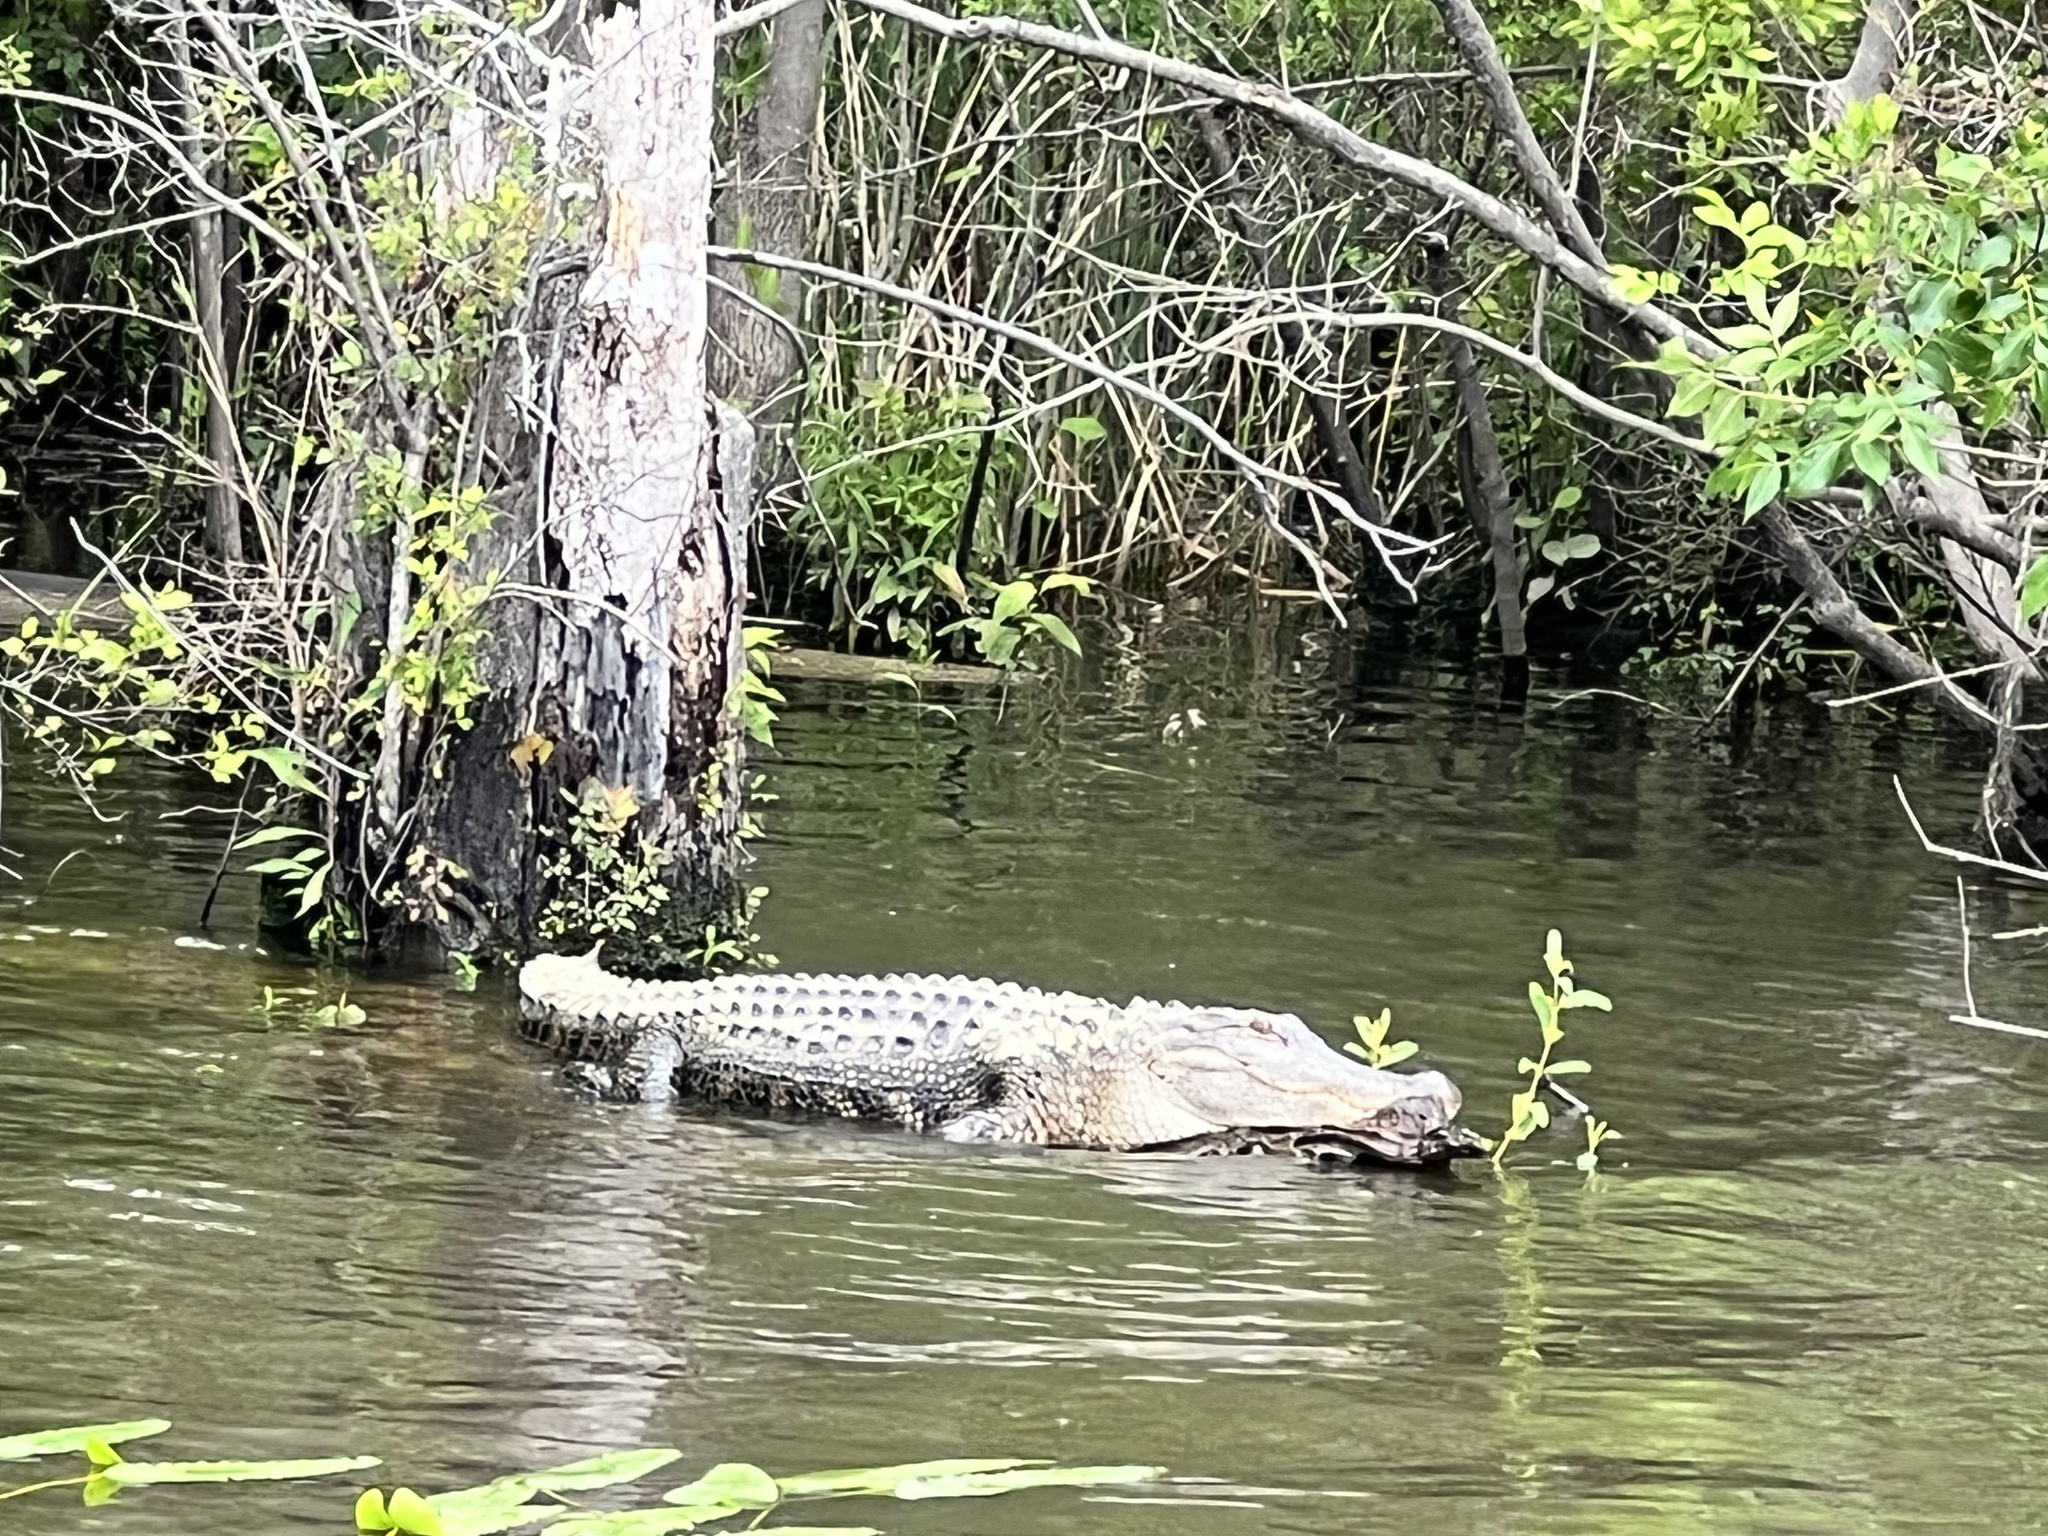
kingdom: Animalia
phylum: Chordata
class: Crocodylia
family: Alligatoridae
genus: Alligator
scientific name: Alligator mississippiensis
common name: American alligator
